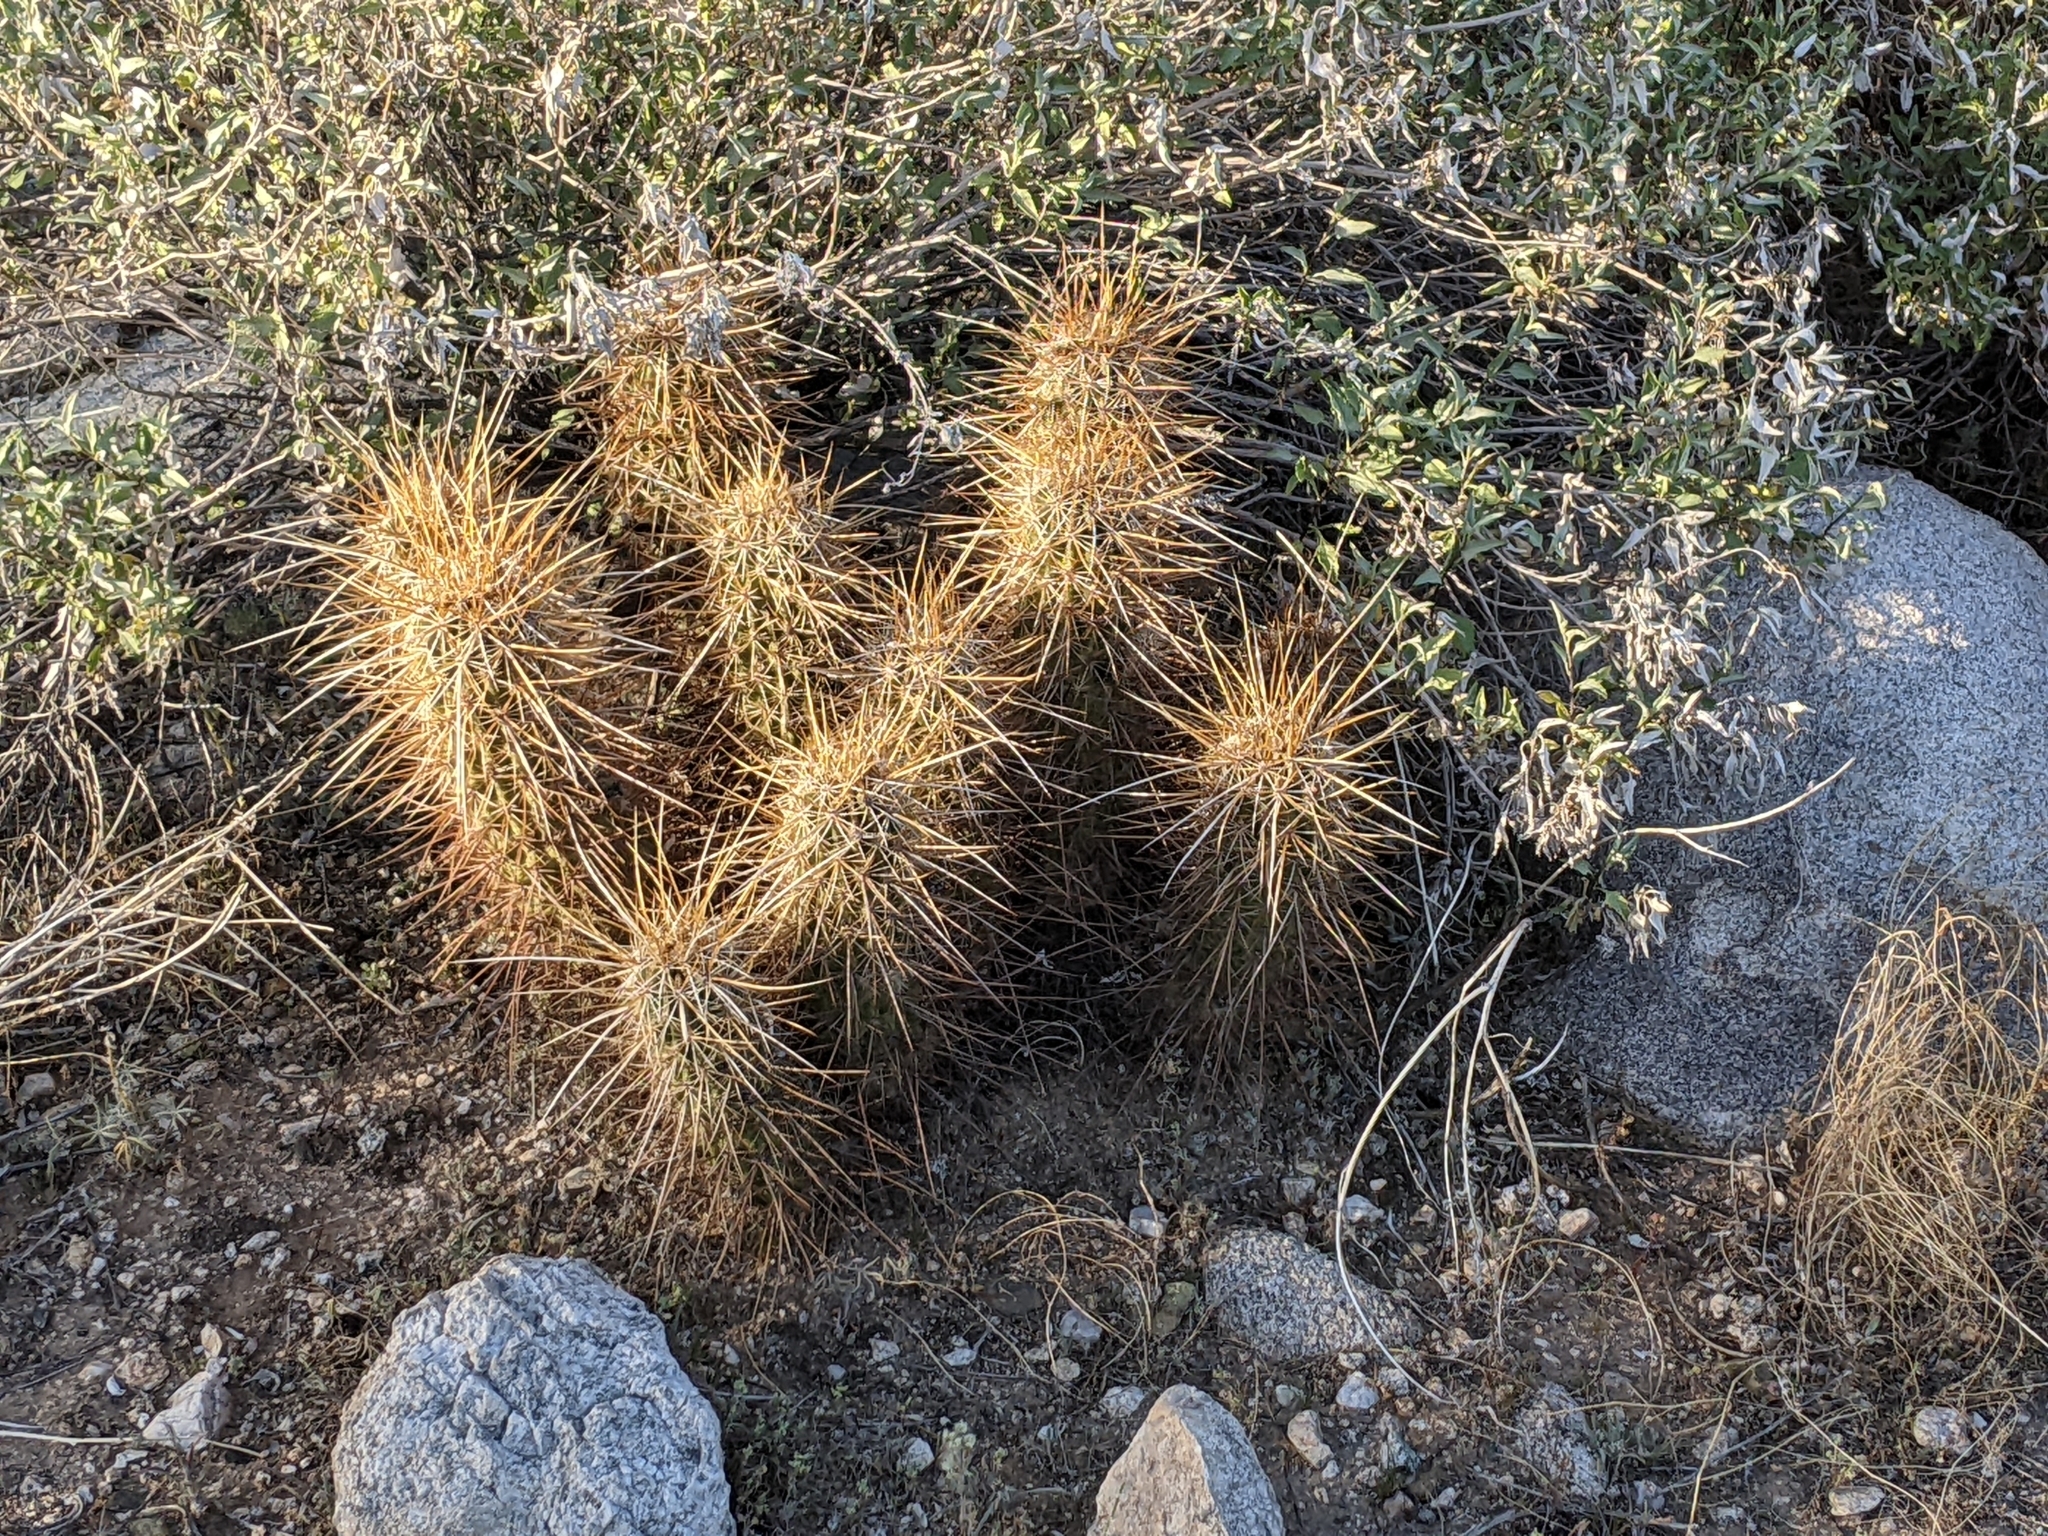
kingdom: Plantae
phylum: Tracheophyta
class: Magnoliopsida
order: Caryophyllales
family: Cactaceae
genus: Echinocereus
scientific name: Echinocereus engelmannii
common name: Engelmann's hedgehog cactus
